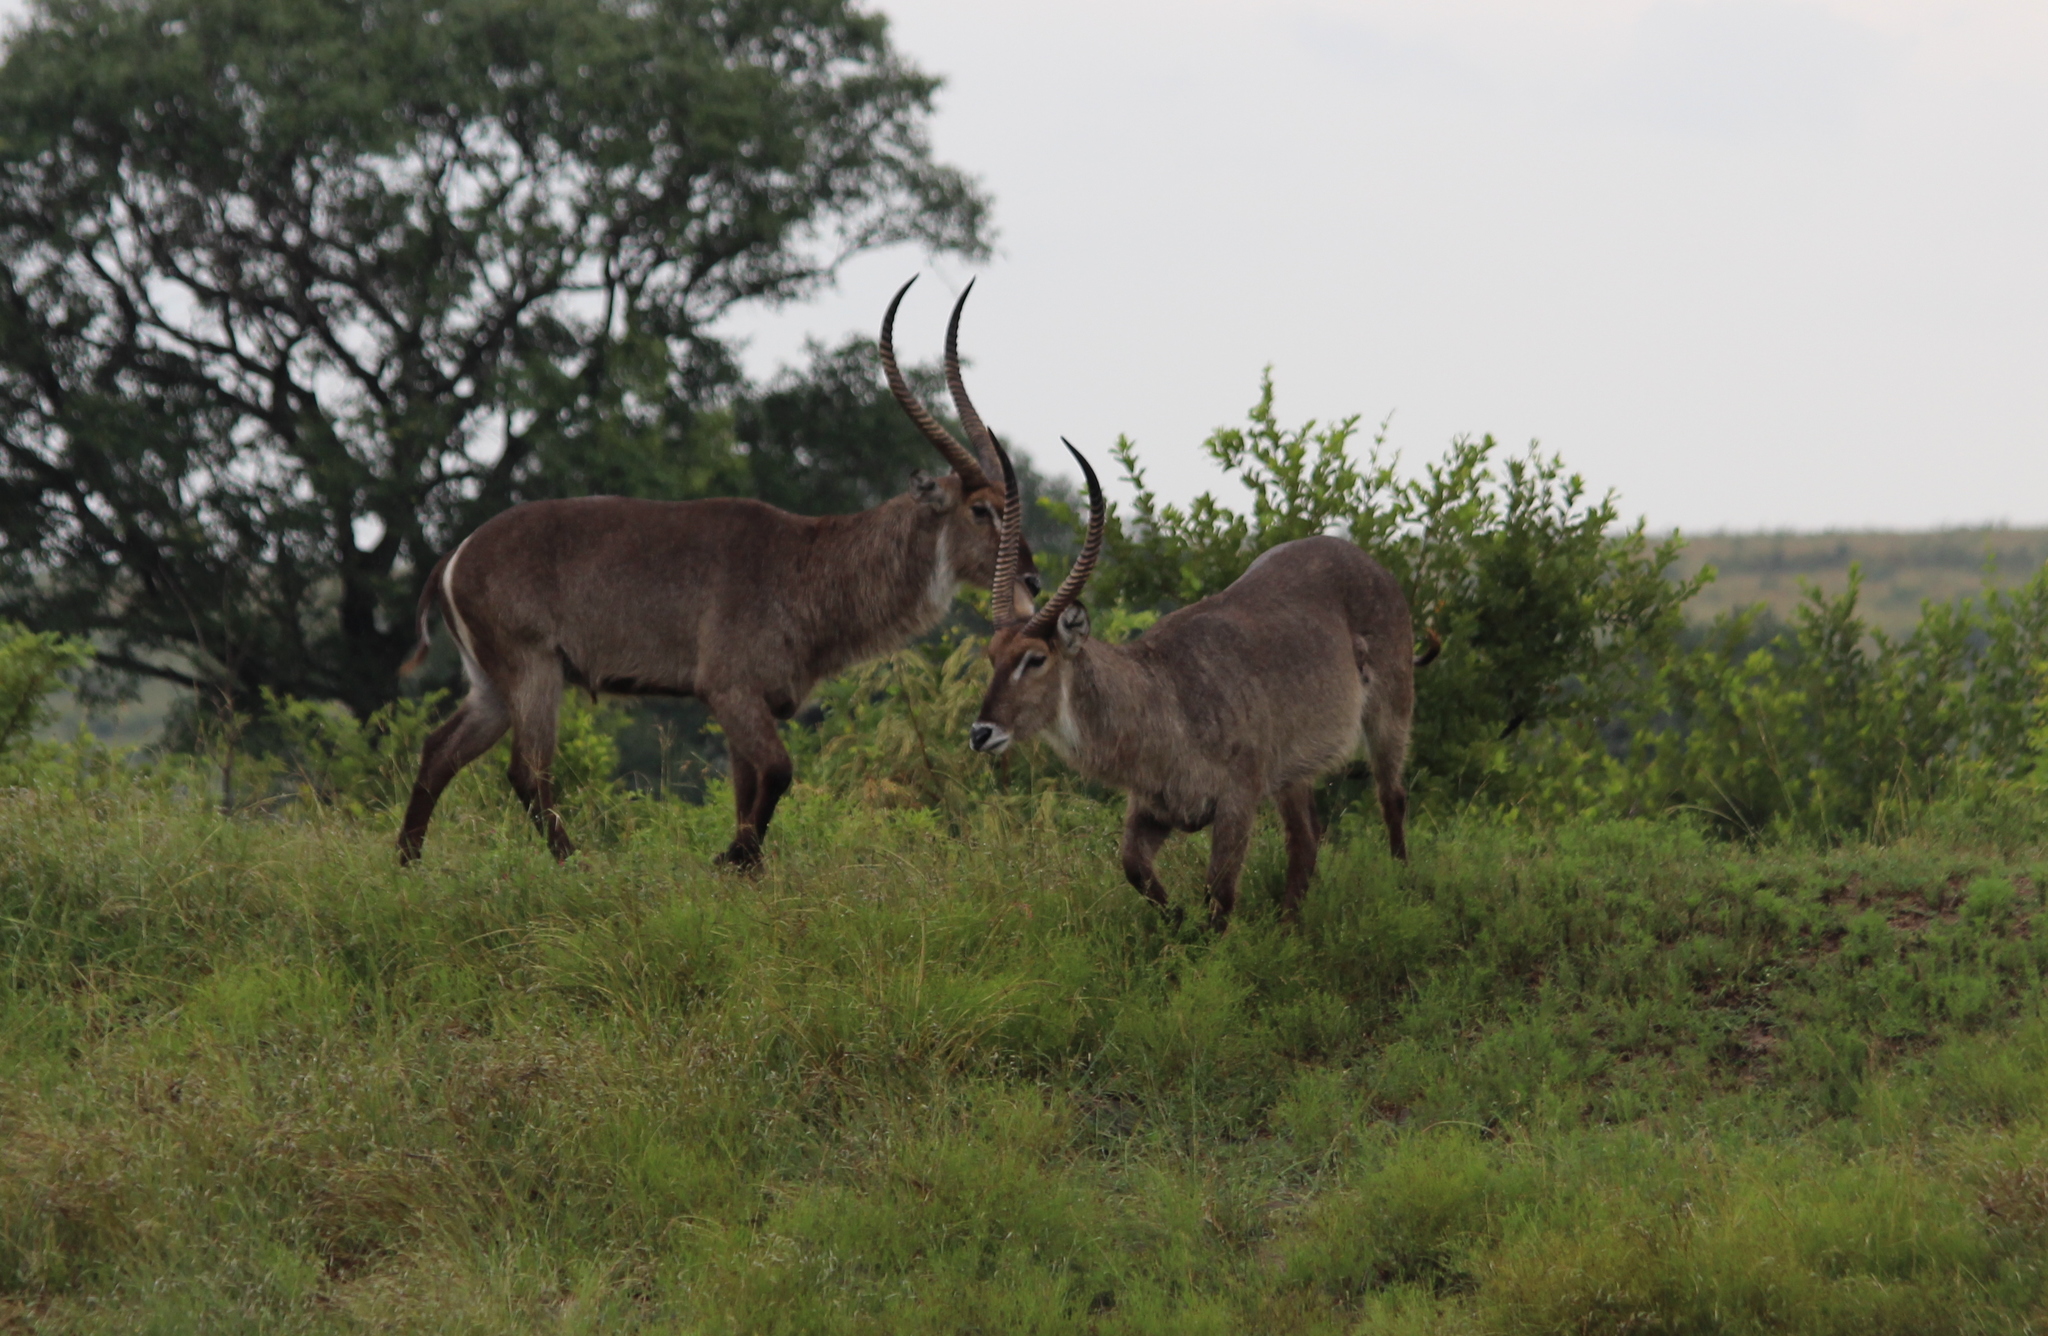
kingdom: Animalia
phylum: Chordata
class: Mammalia
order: Artiodactyla
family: Bovidae
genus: Kobus
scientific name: Kobus ellipsiprymnus
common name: Waterbuck
